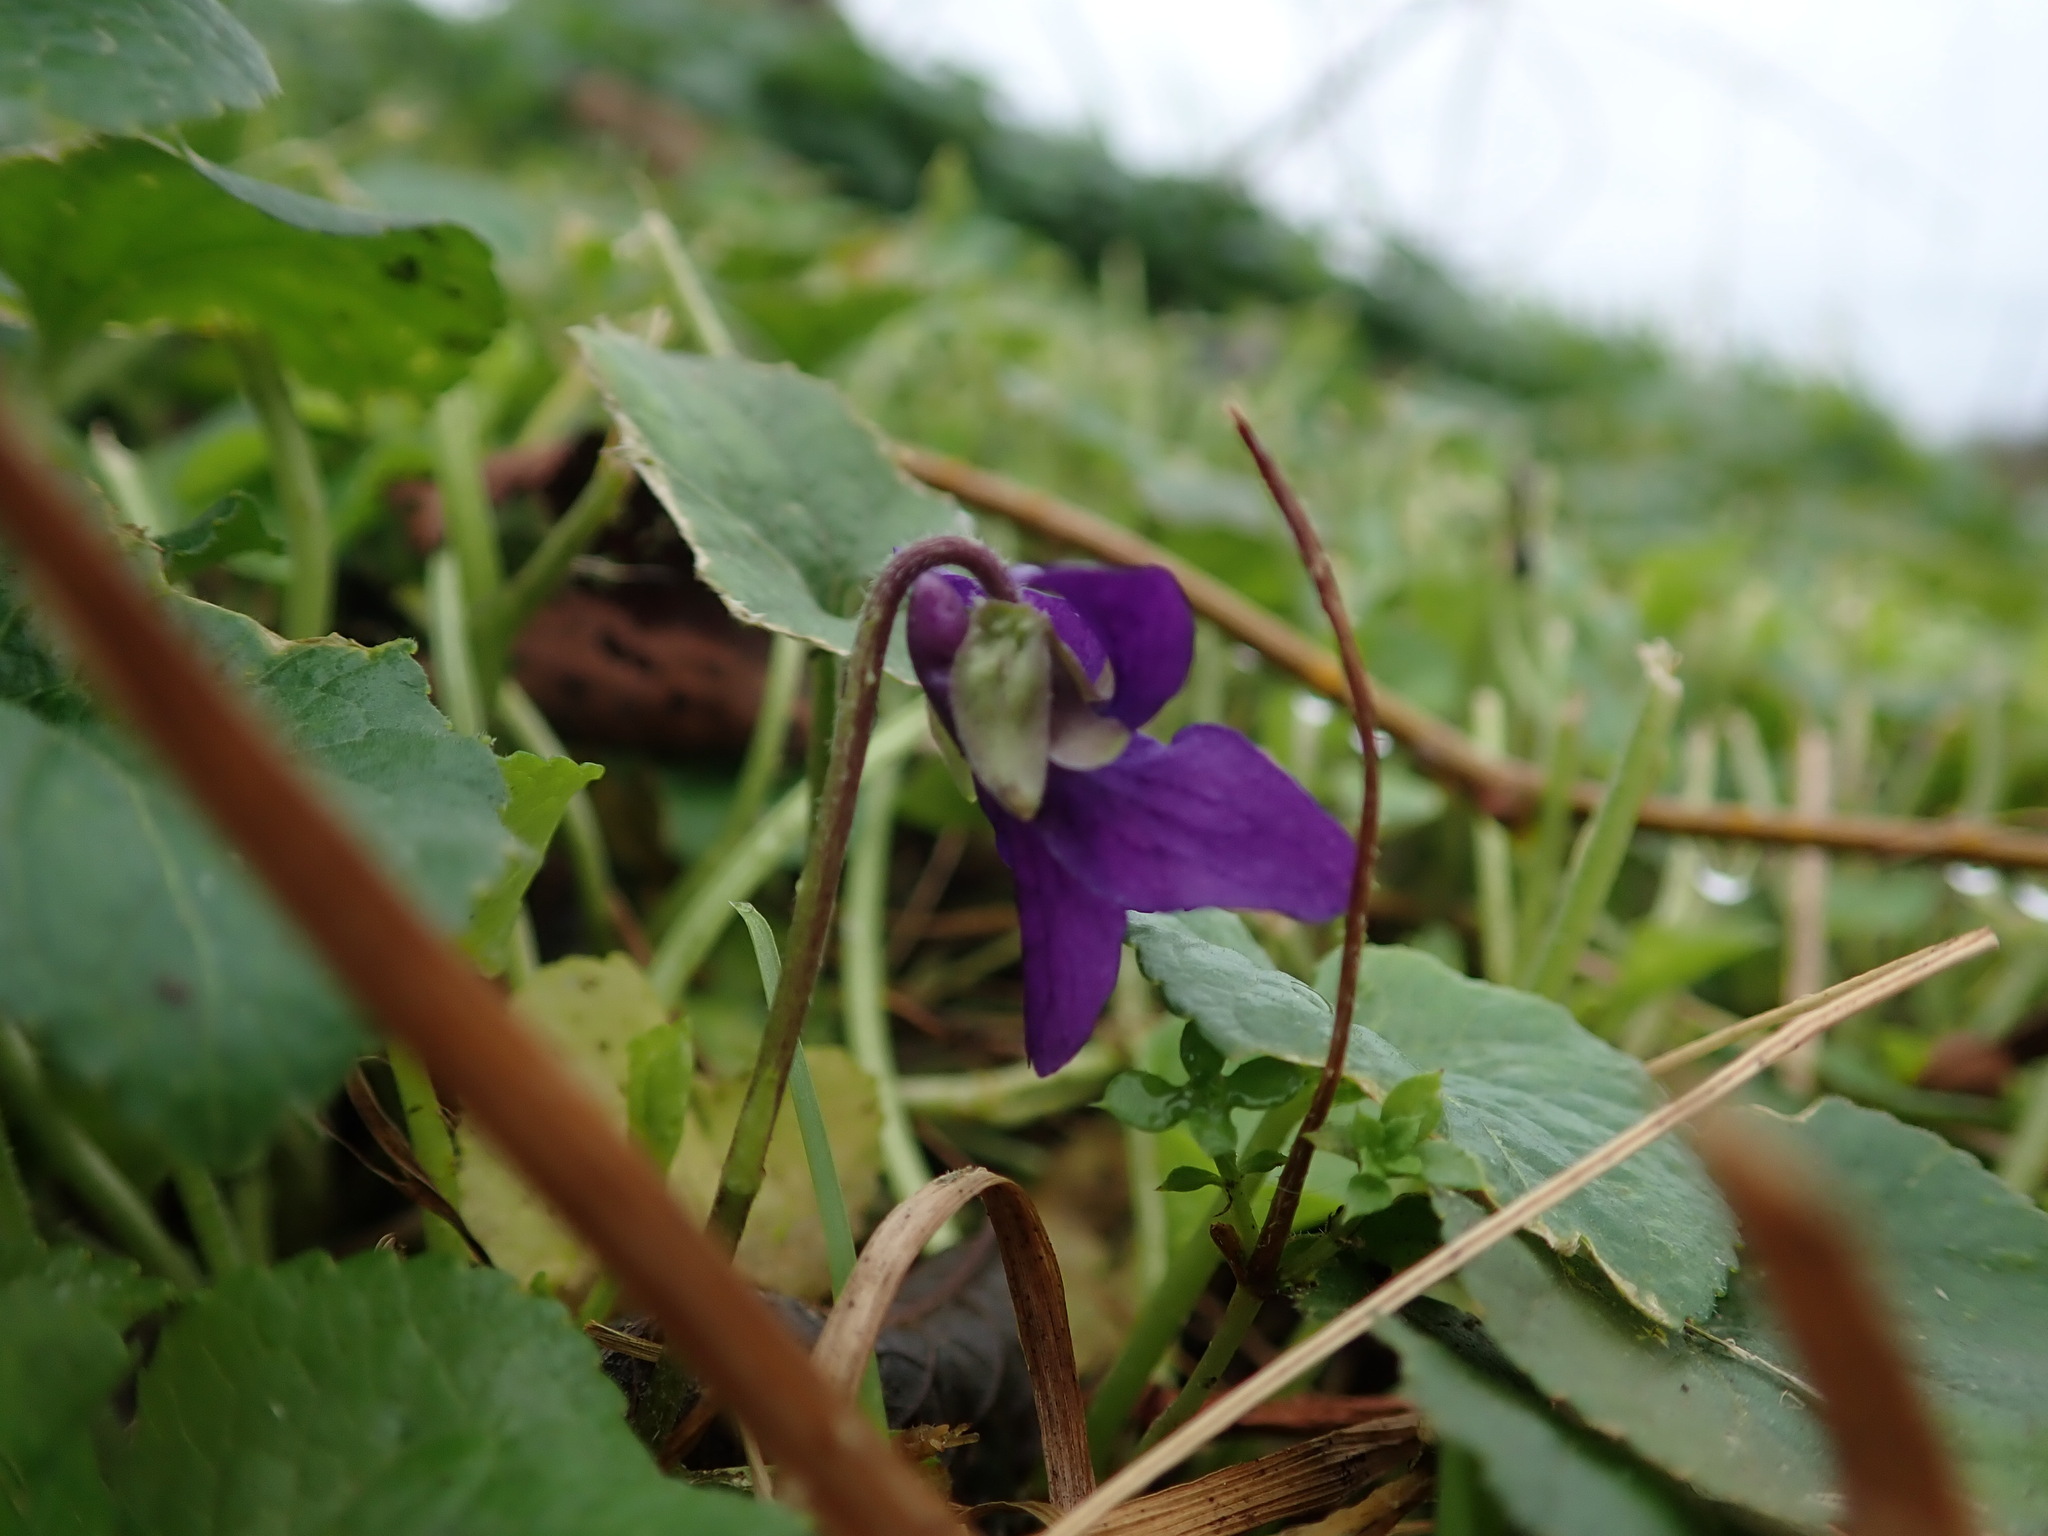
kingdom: Plantae
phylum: Tracheophyta
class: Magnoliopsida
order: Malpighiales
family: Violaceae
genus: Viola
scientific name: Viola odorata
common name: Sweet violet
